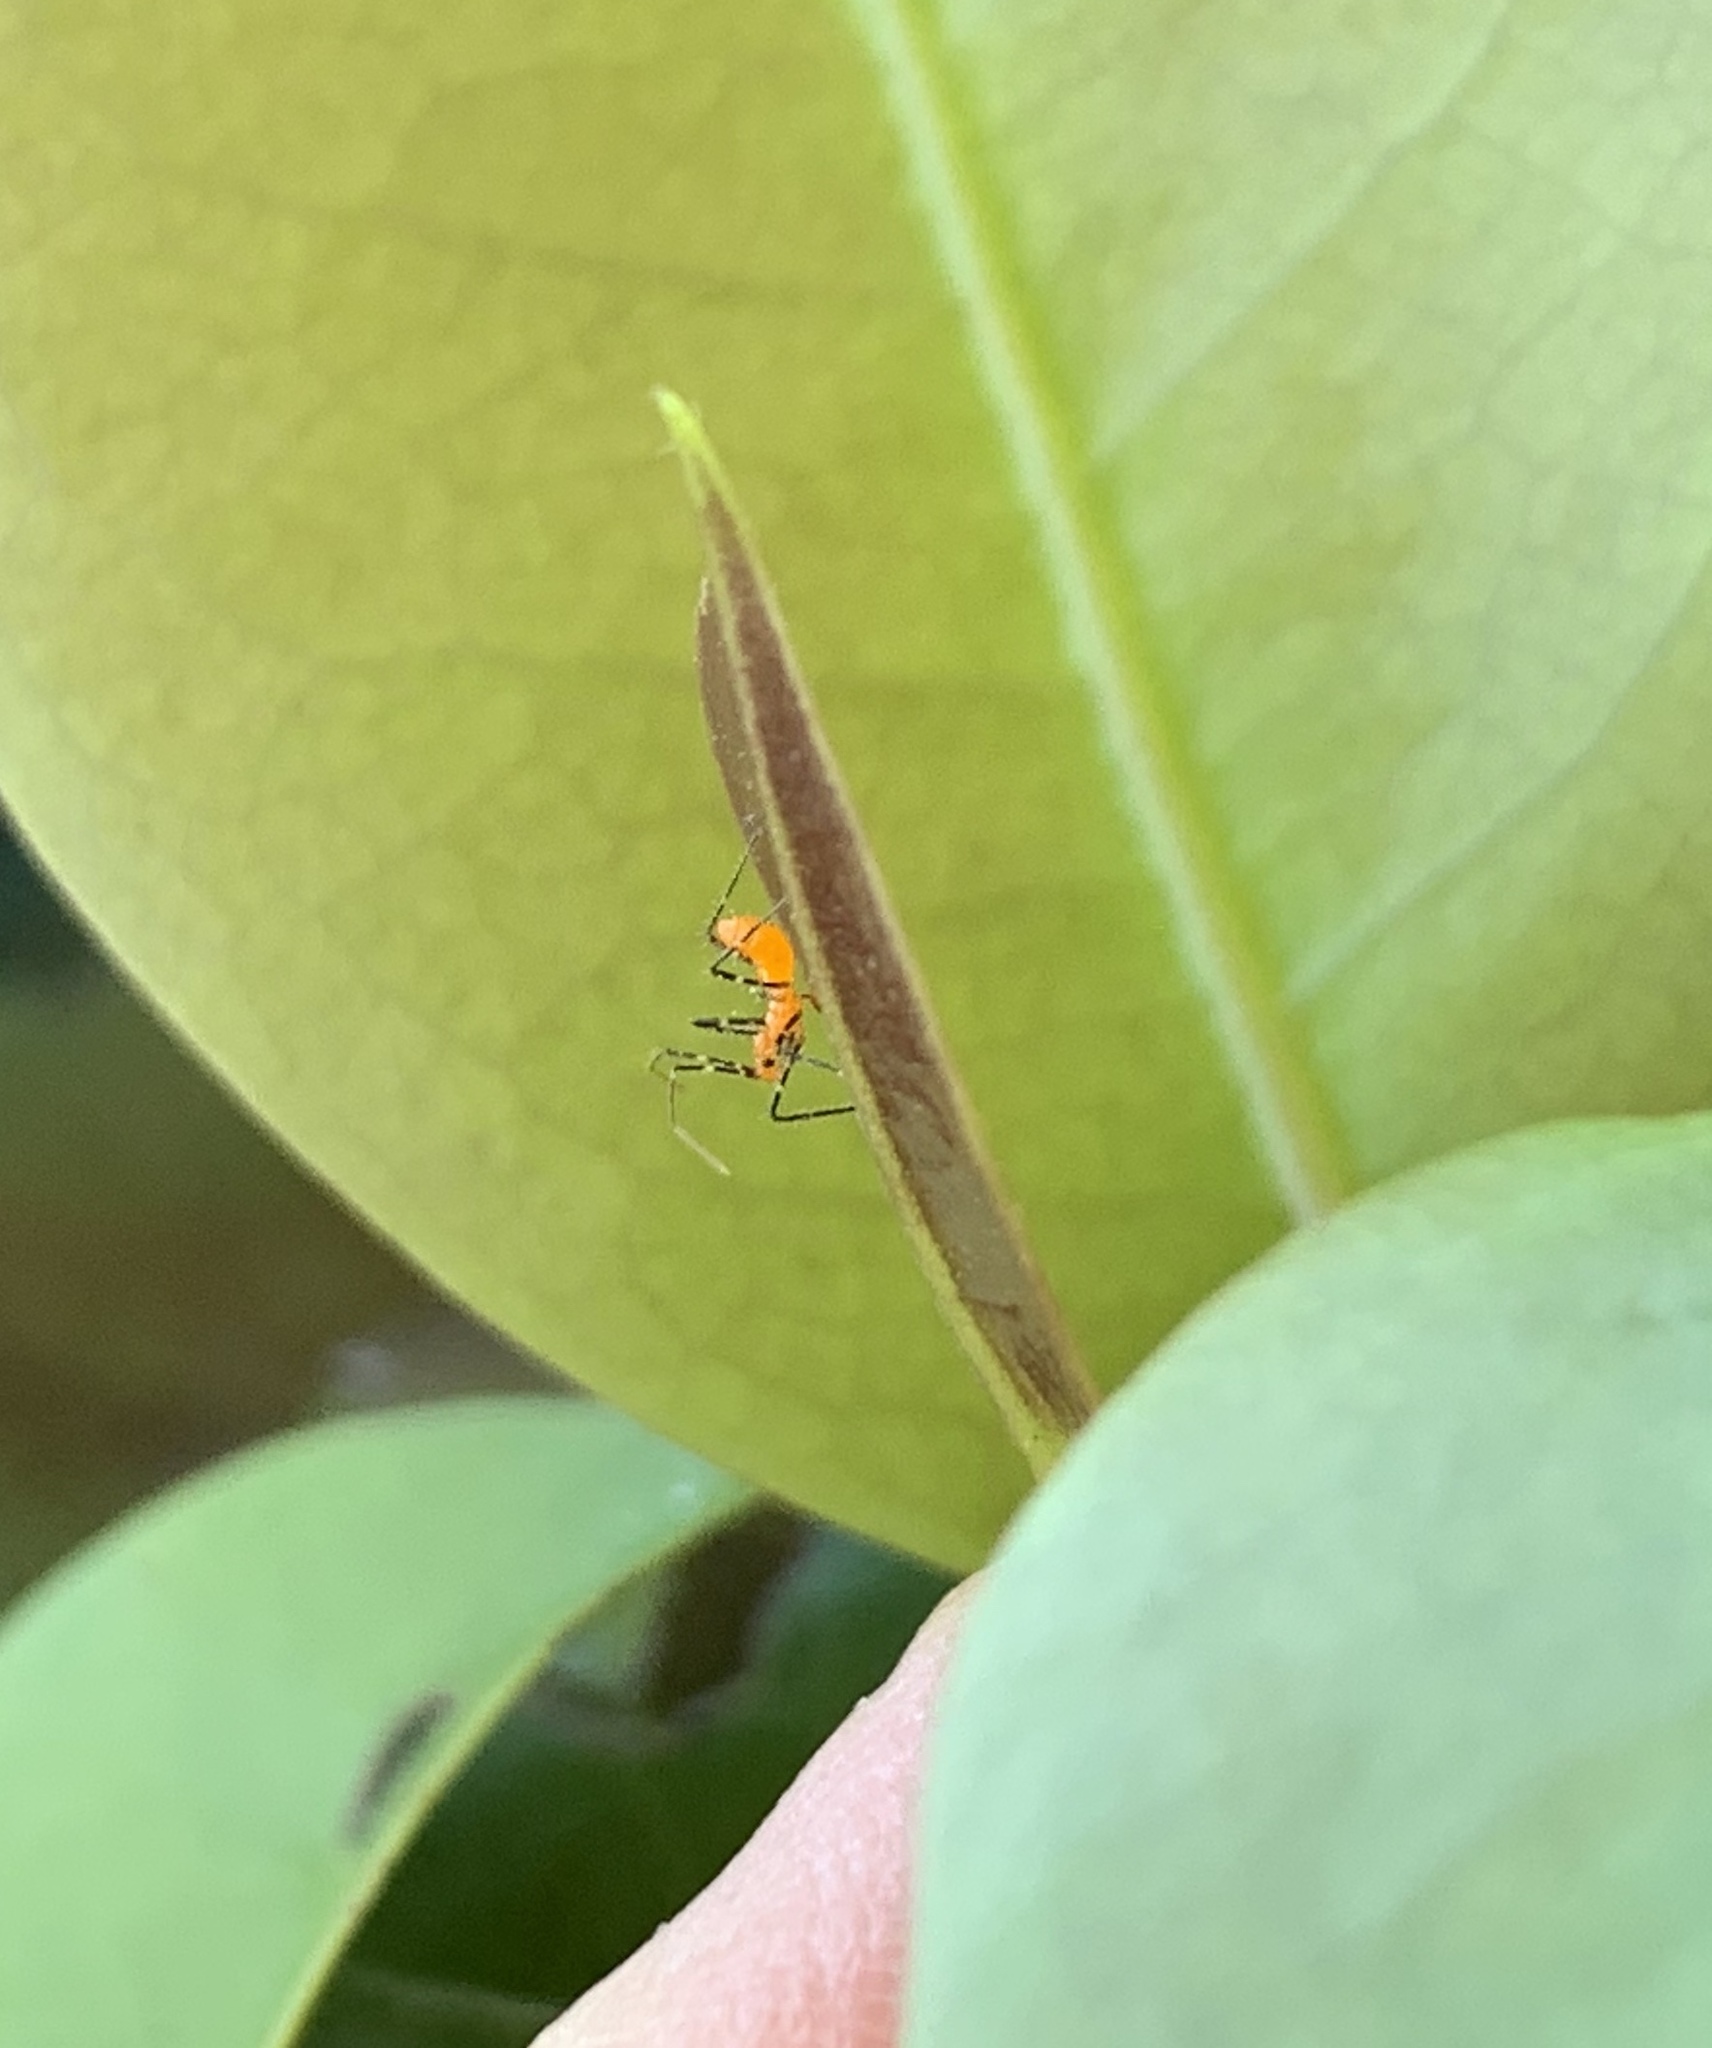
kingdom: Animalia
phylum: Arthropoda
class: Insecta
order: Hemiptera
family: Reduviidae
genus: Zelus
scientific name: Zelus longipes
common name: Milkweed assassin bug
